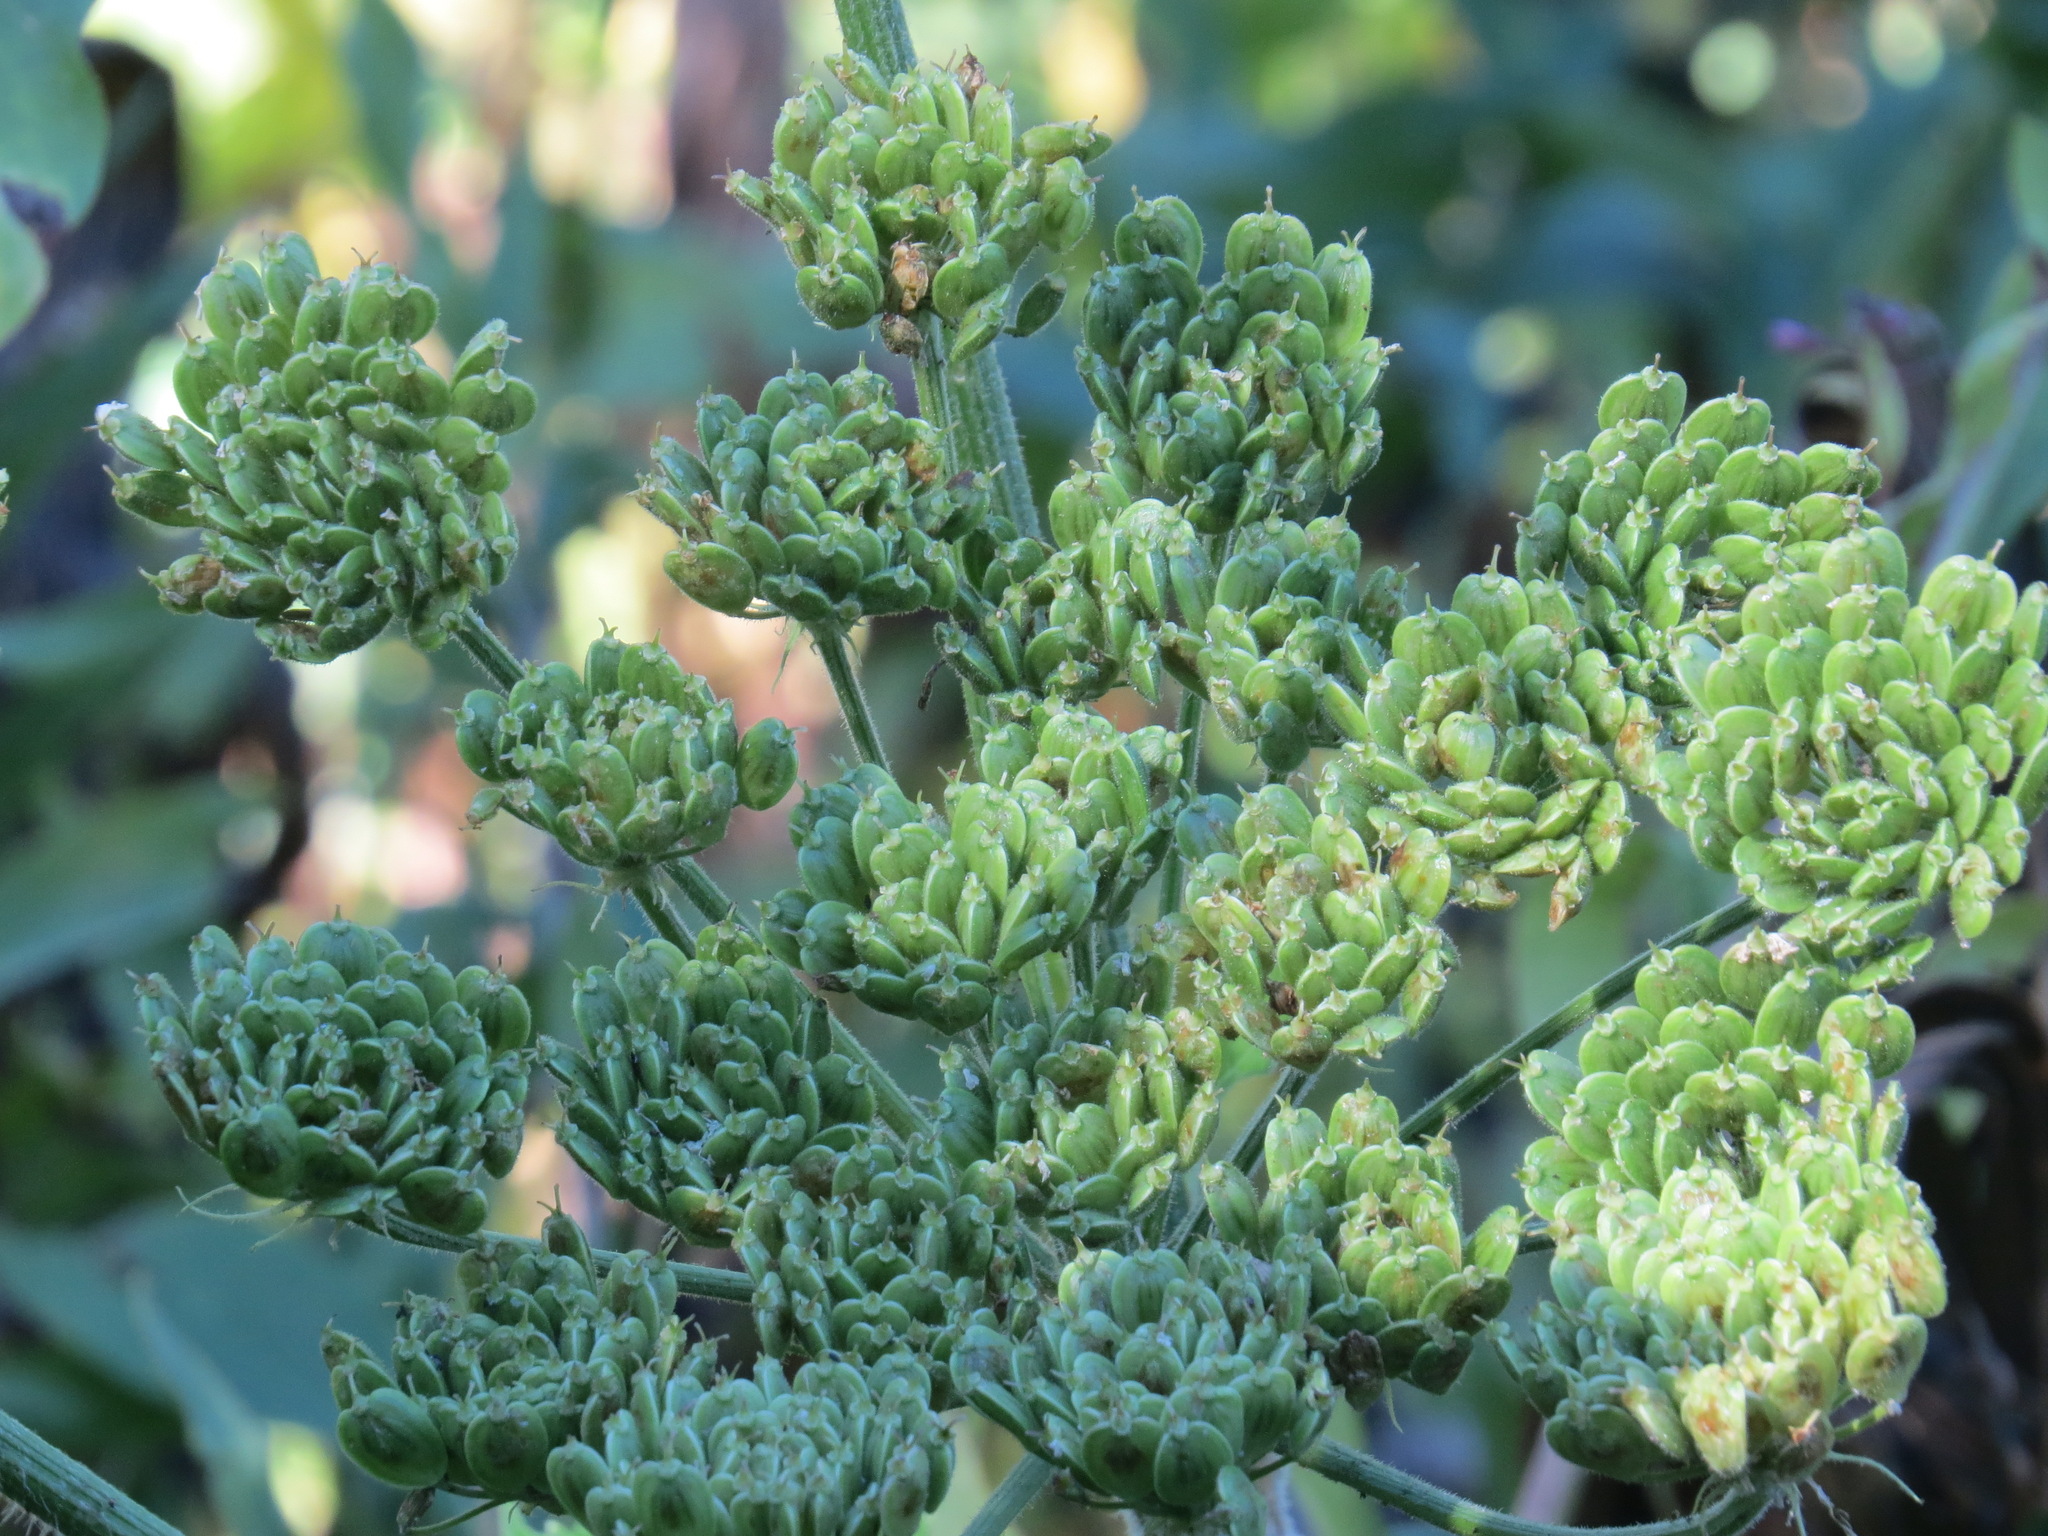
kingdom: Plantae
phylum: Tracheophyta
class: Magnoliopsida
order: Apiales
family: Apiaceae
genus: Heracleum
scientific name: Heracleum maximum
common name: American cow parsnip
